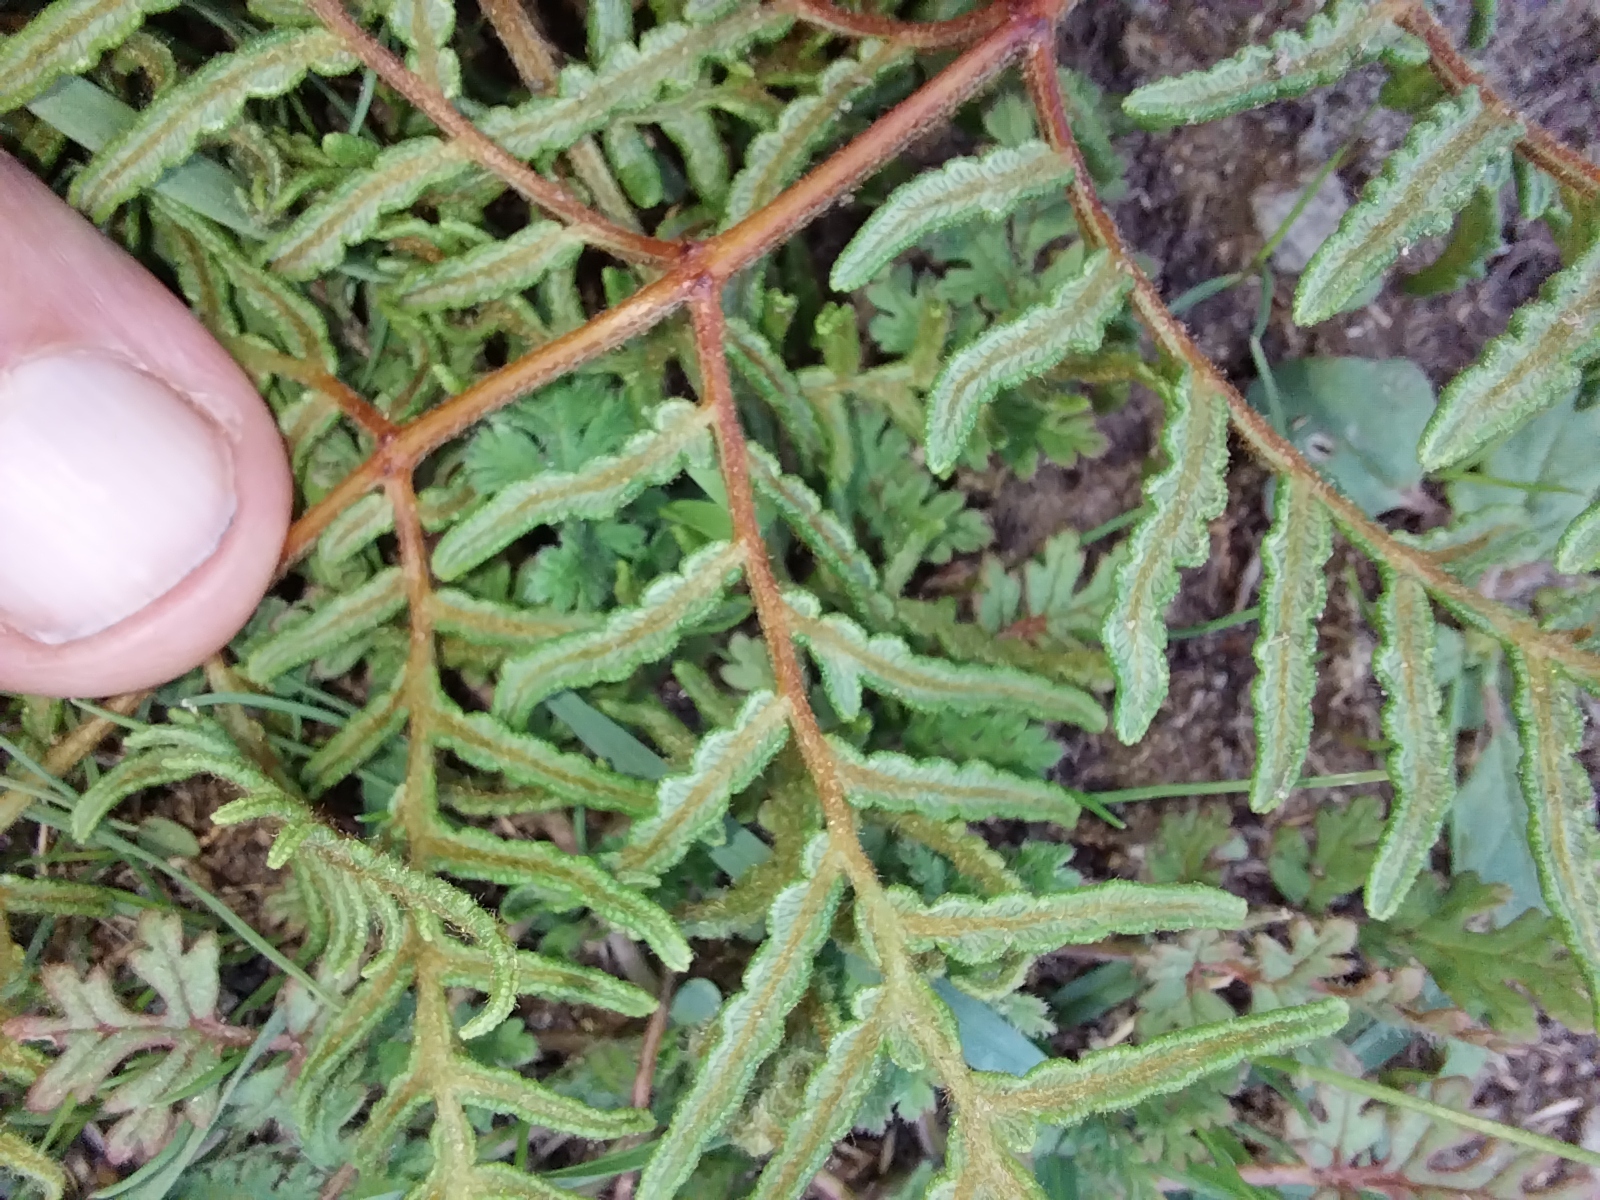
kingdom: Plantae
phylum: Tracheophyta
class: Polypodiopsida
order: Polypodiales
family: Dennstaedtiaceae
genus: Pteridium
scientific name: Pteridium esculentum
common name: Bracken fern
